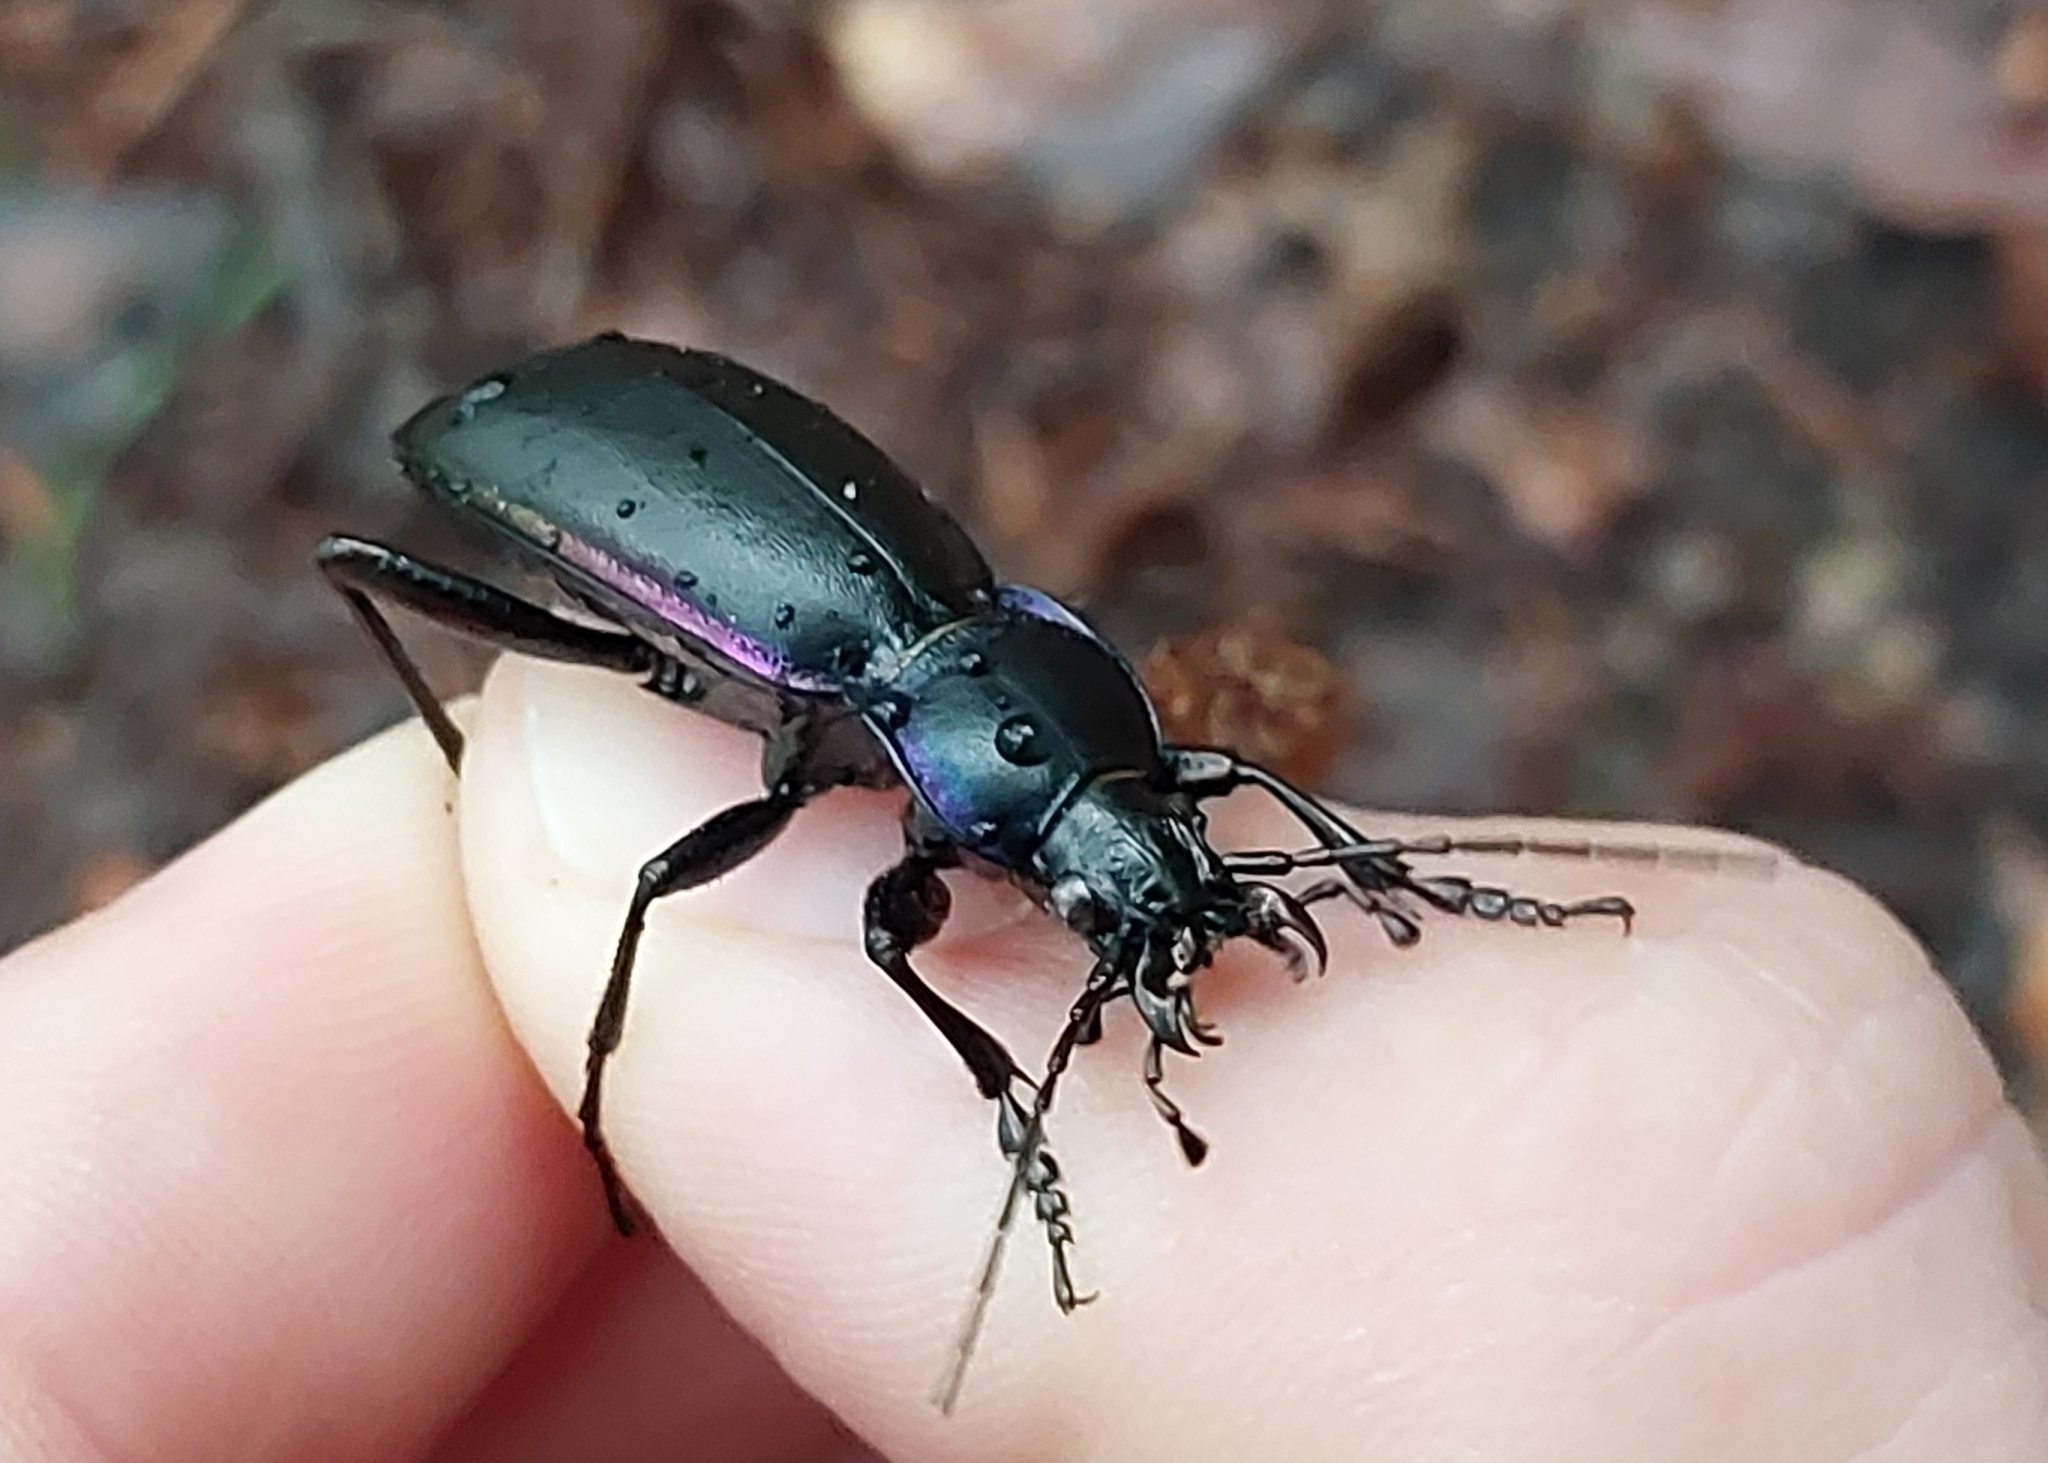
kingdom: Animalia
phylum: Arthropoda
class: Insecta
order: Coleoptera
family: Carabidae
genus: Carabus
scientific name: Carabus violaceus
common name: Violet ground beetle
